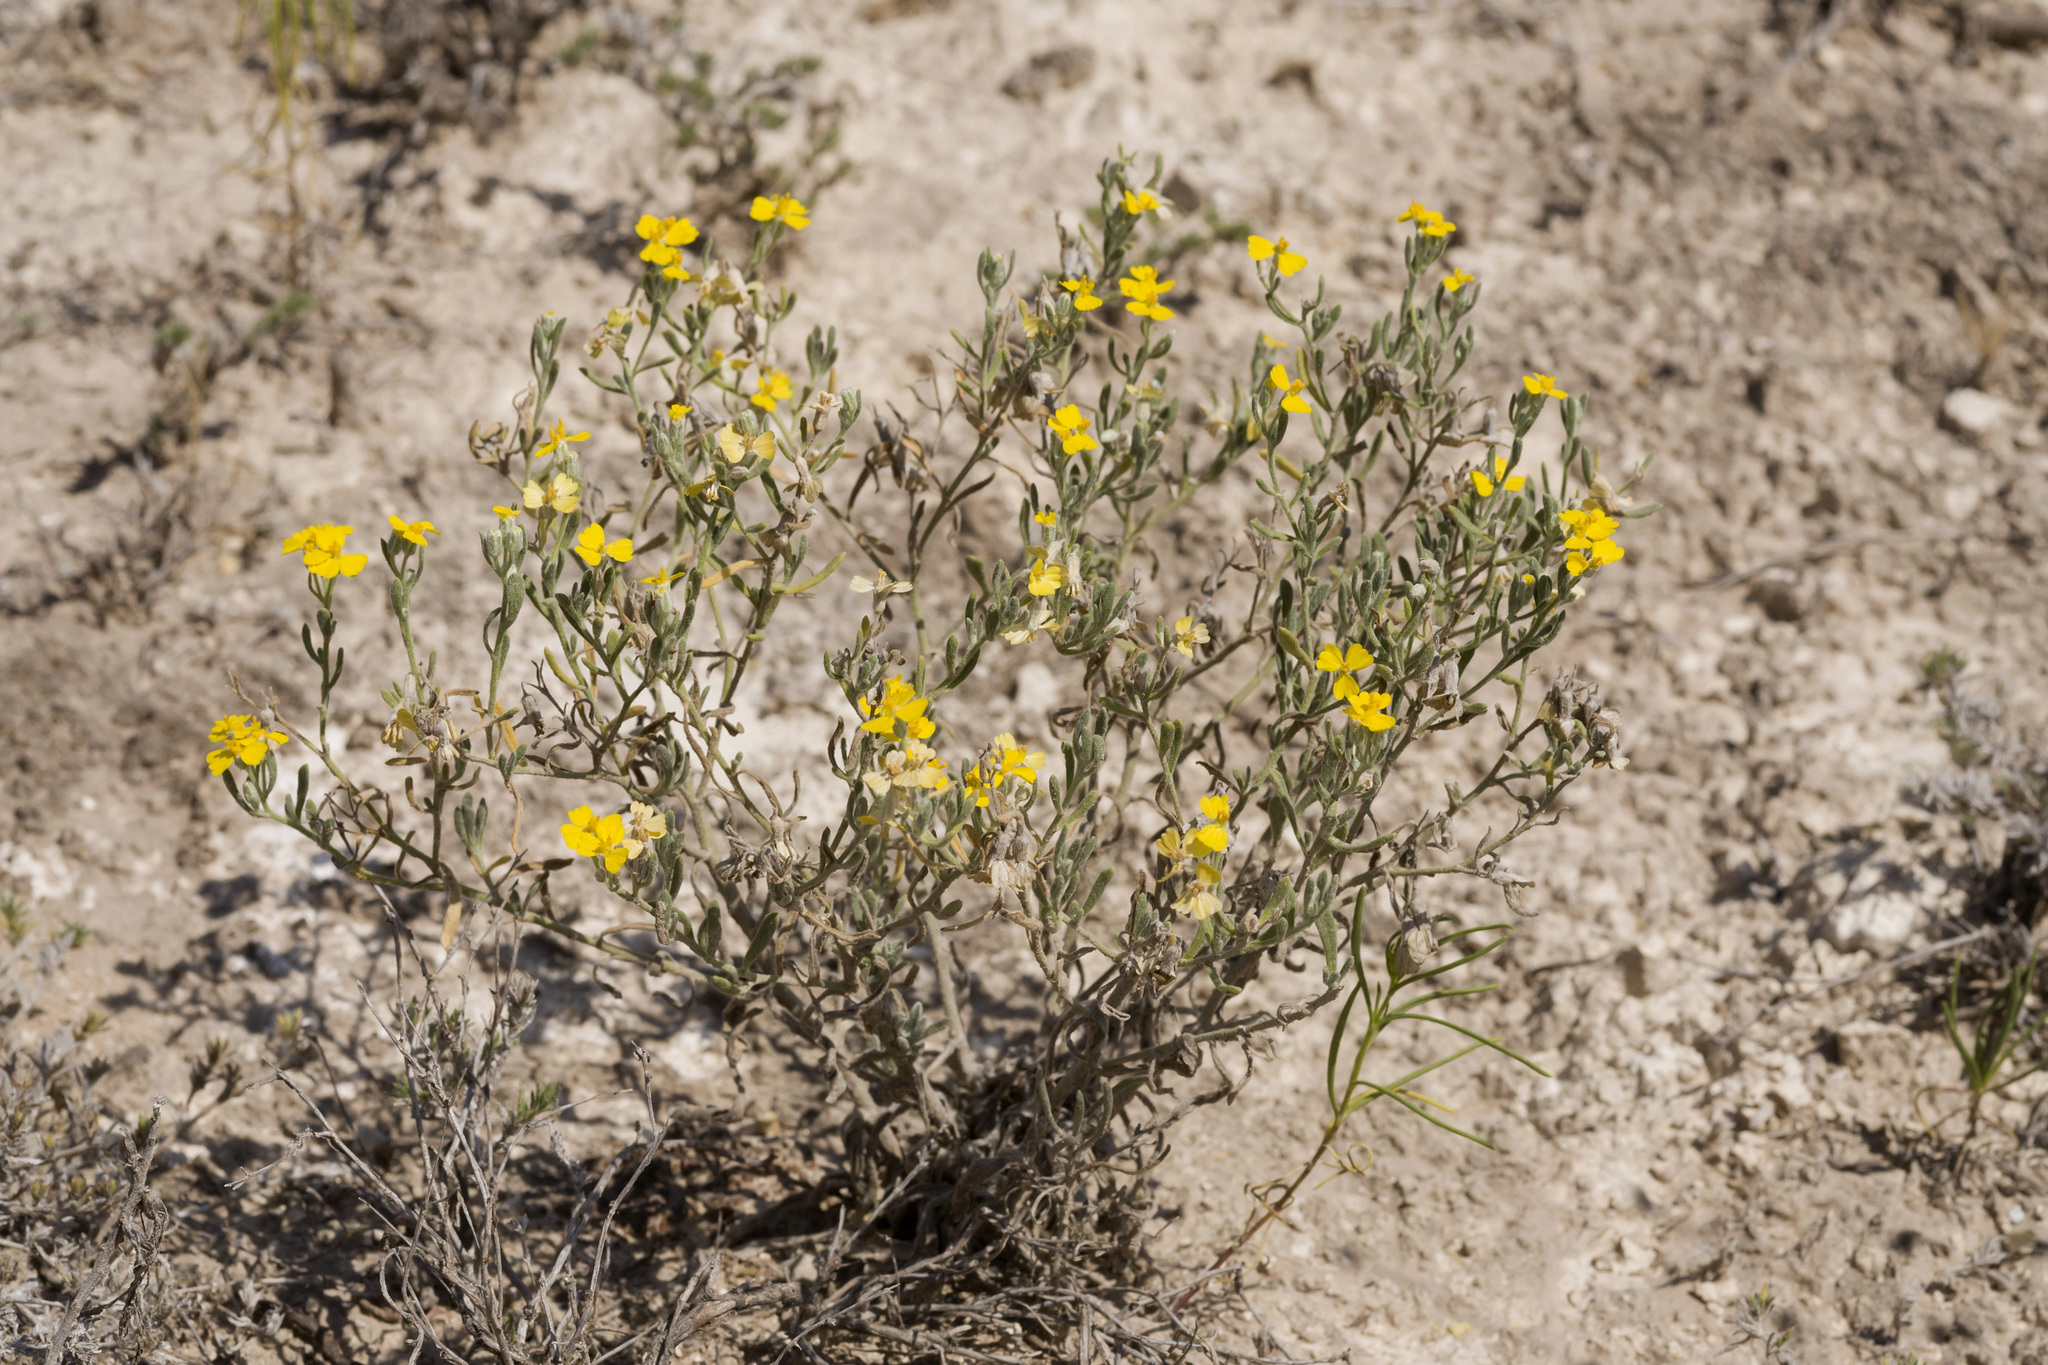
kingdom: Plantae
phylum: Tracheophyta
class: Magnoliopsida
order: Asterales
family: Asteraceae
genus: Psilostrophe
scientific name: Psilostrophe villosa
